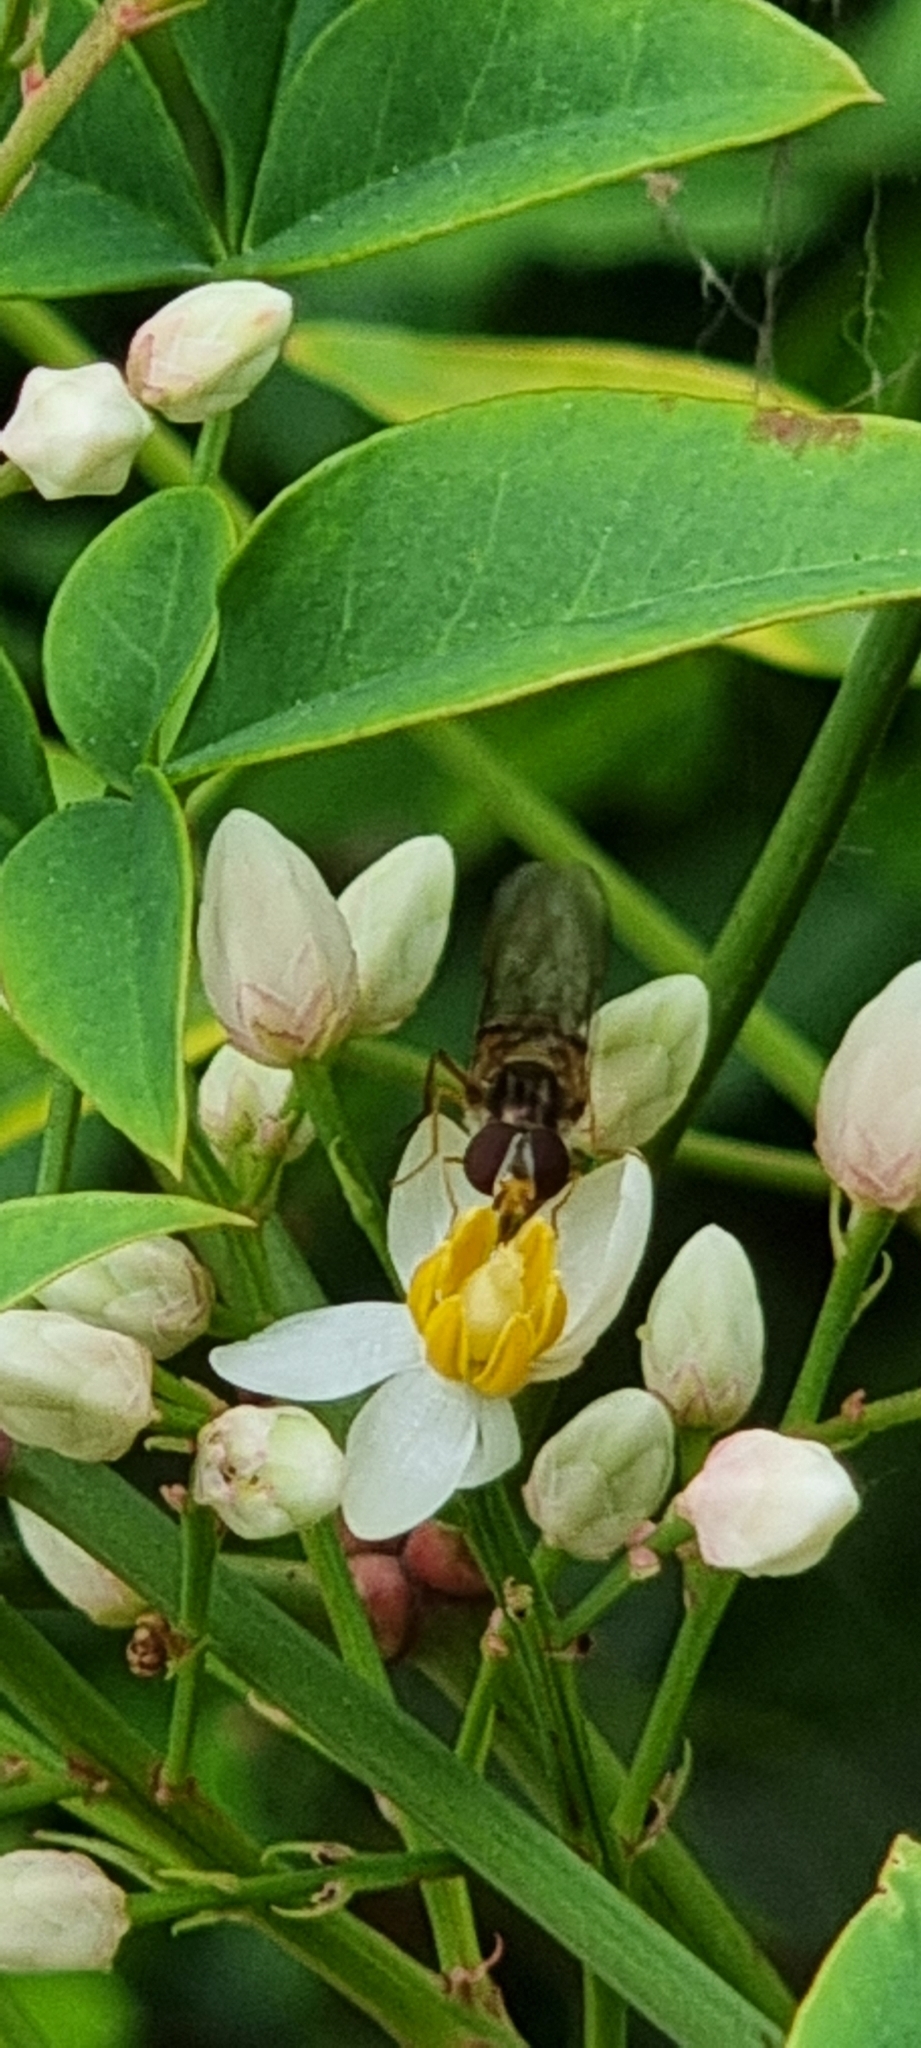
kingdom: Animalia
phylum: Arthropoda
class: Insecta
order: Diptera
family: Syrphidae
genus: Episyrphus
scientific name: Episyrphus balteatus
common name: Marmalade hoverfly
